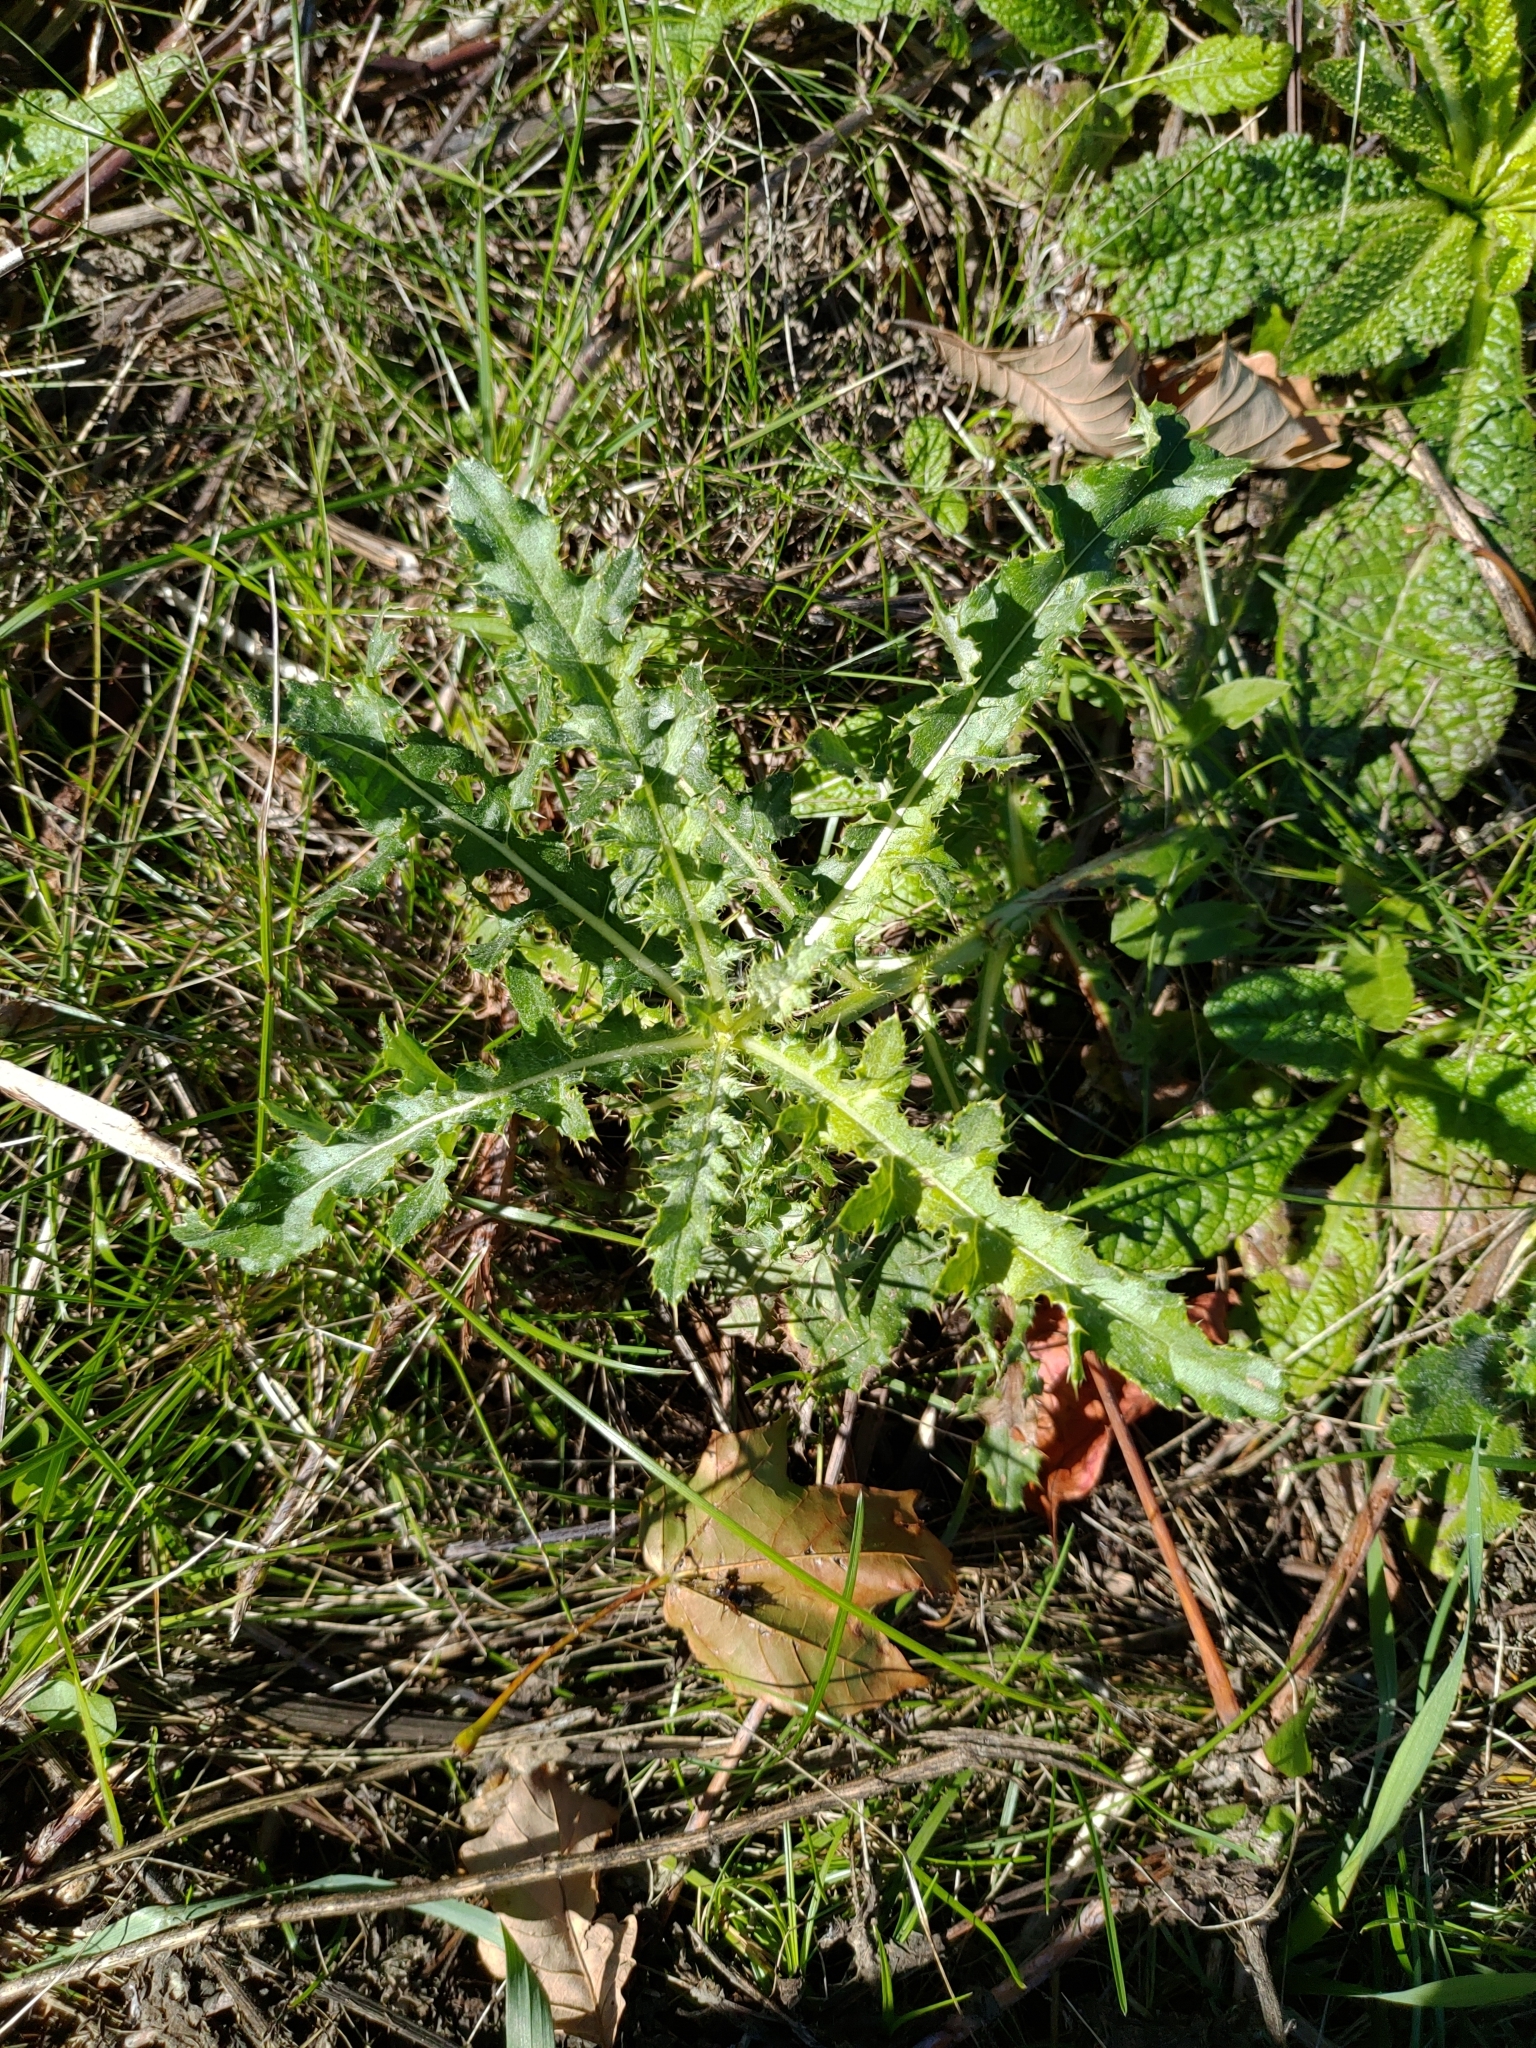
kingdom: Plantae
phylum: Tracheophyta
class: Magnoliopsida
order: Asterales
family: Asteraceae
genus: Cirsium
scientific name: Cirsium arvense
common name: Creeping thistle
